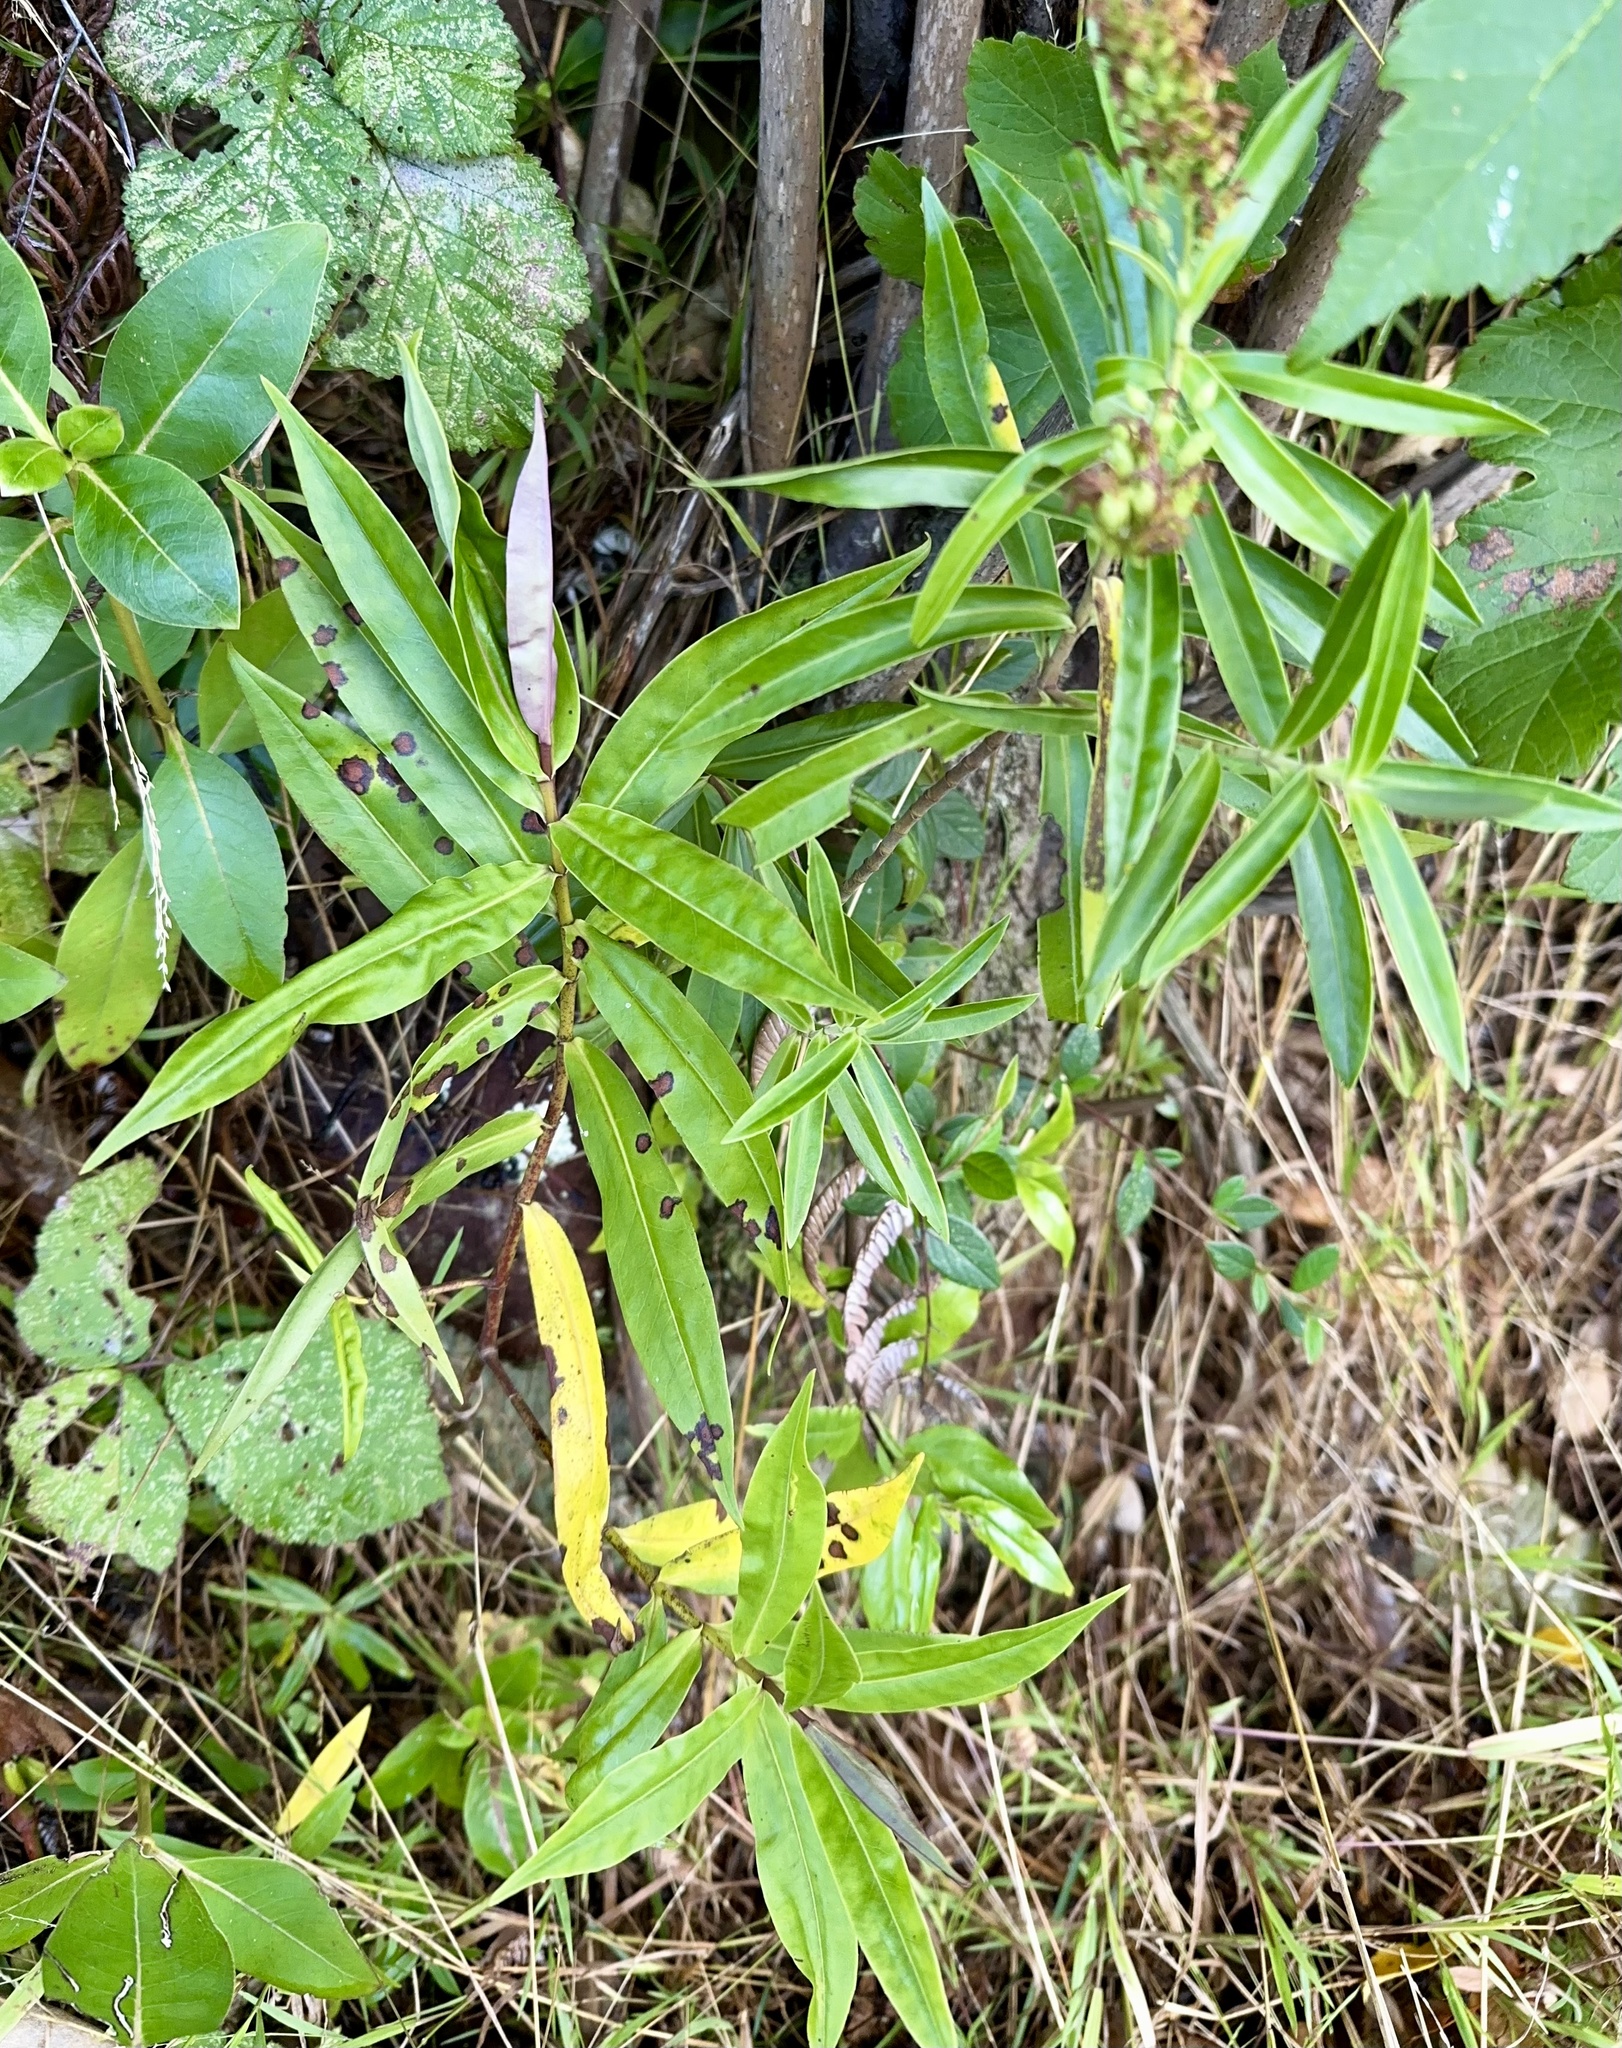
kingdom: Plantae
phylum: Tracheophyta
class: Magnoliopsida
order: Lamiales
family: Plantaginaceae
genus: Veronica
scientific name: Veronica stricta
